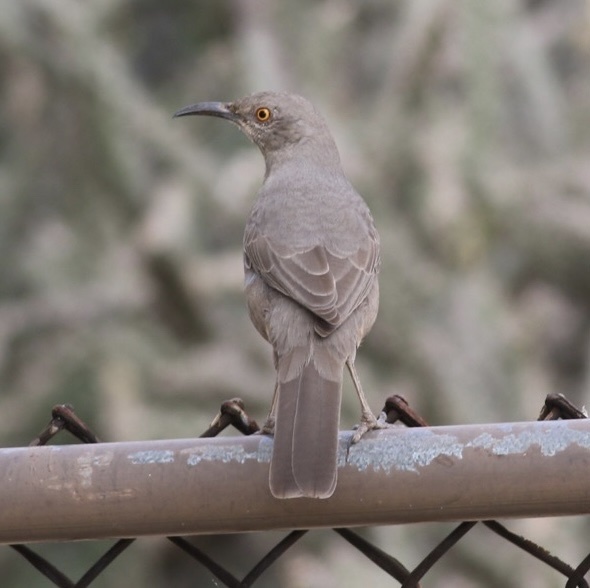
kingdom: Animalia
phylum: Chordata
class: Aves
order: Passeriformes
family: Mimidae
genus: Toxostoma
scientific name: Toxostoma curvirostre
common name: Curve-billed thrasher
